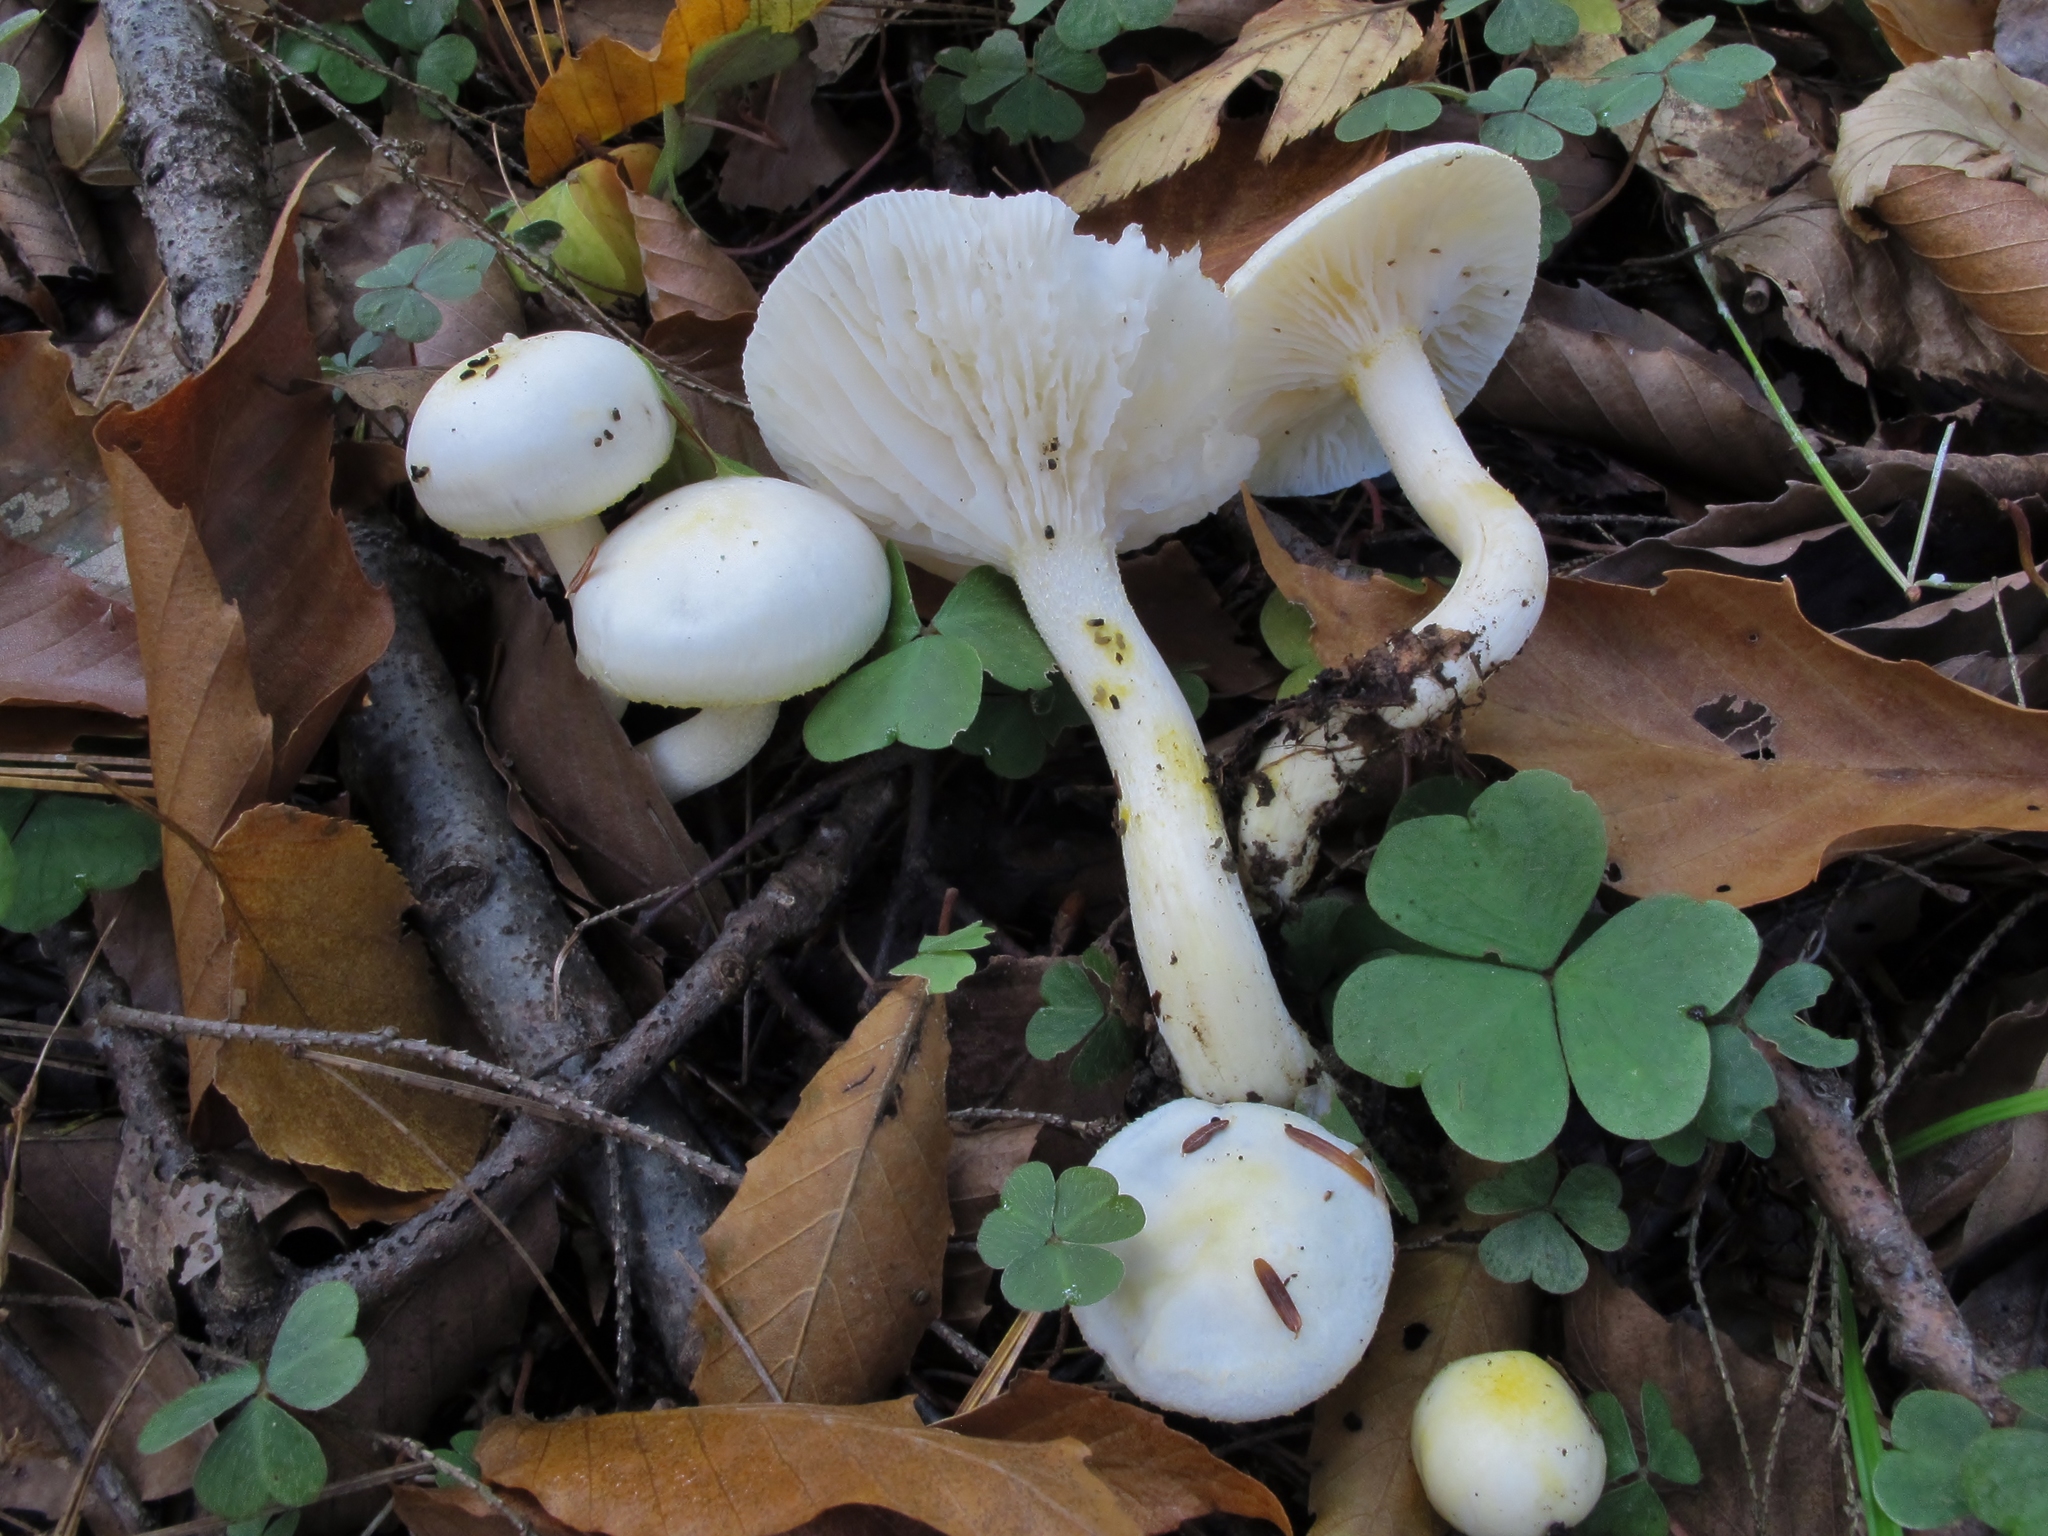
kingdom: Fungi
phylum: Basidiomycota
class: Agaricomycetes
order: Agaricales
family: Hygrophoraceae
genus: Hygrophorus
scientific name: Hygrophorus chrysodon
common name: Gold flecked woodwax
